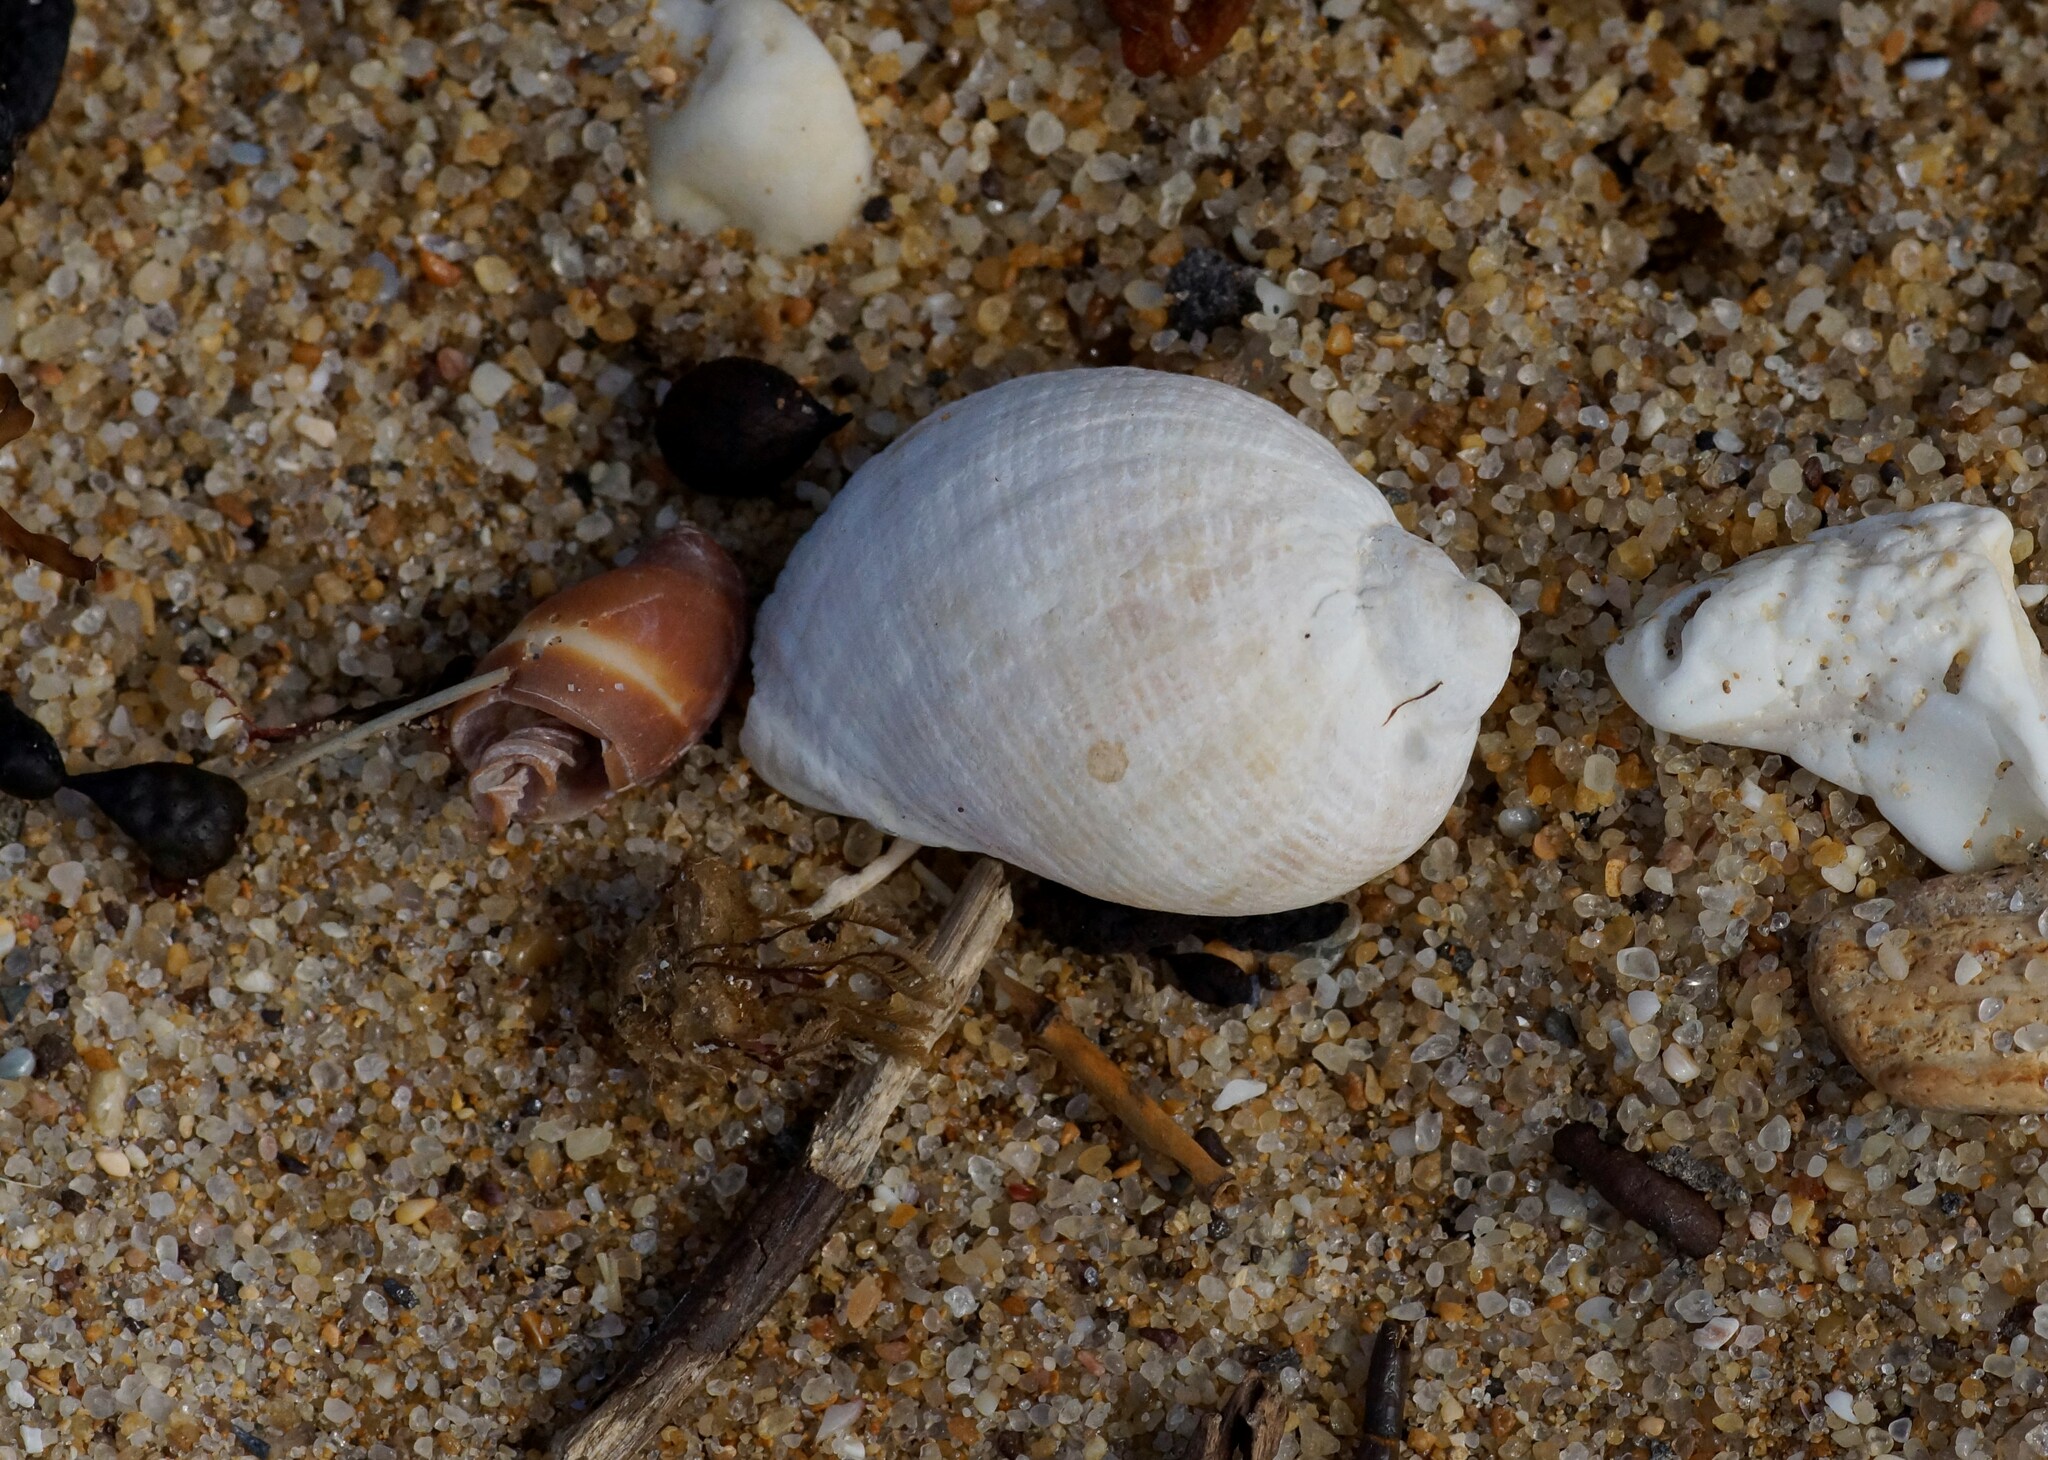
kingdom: Animalia
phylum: Mollusca
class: Gastropoda
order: Neogastropoda
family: Muricidae
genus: Dicathais
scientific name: Dicathais orbita
